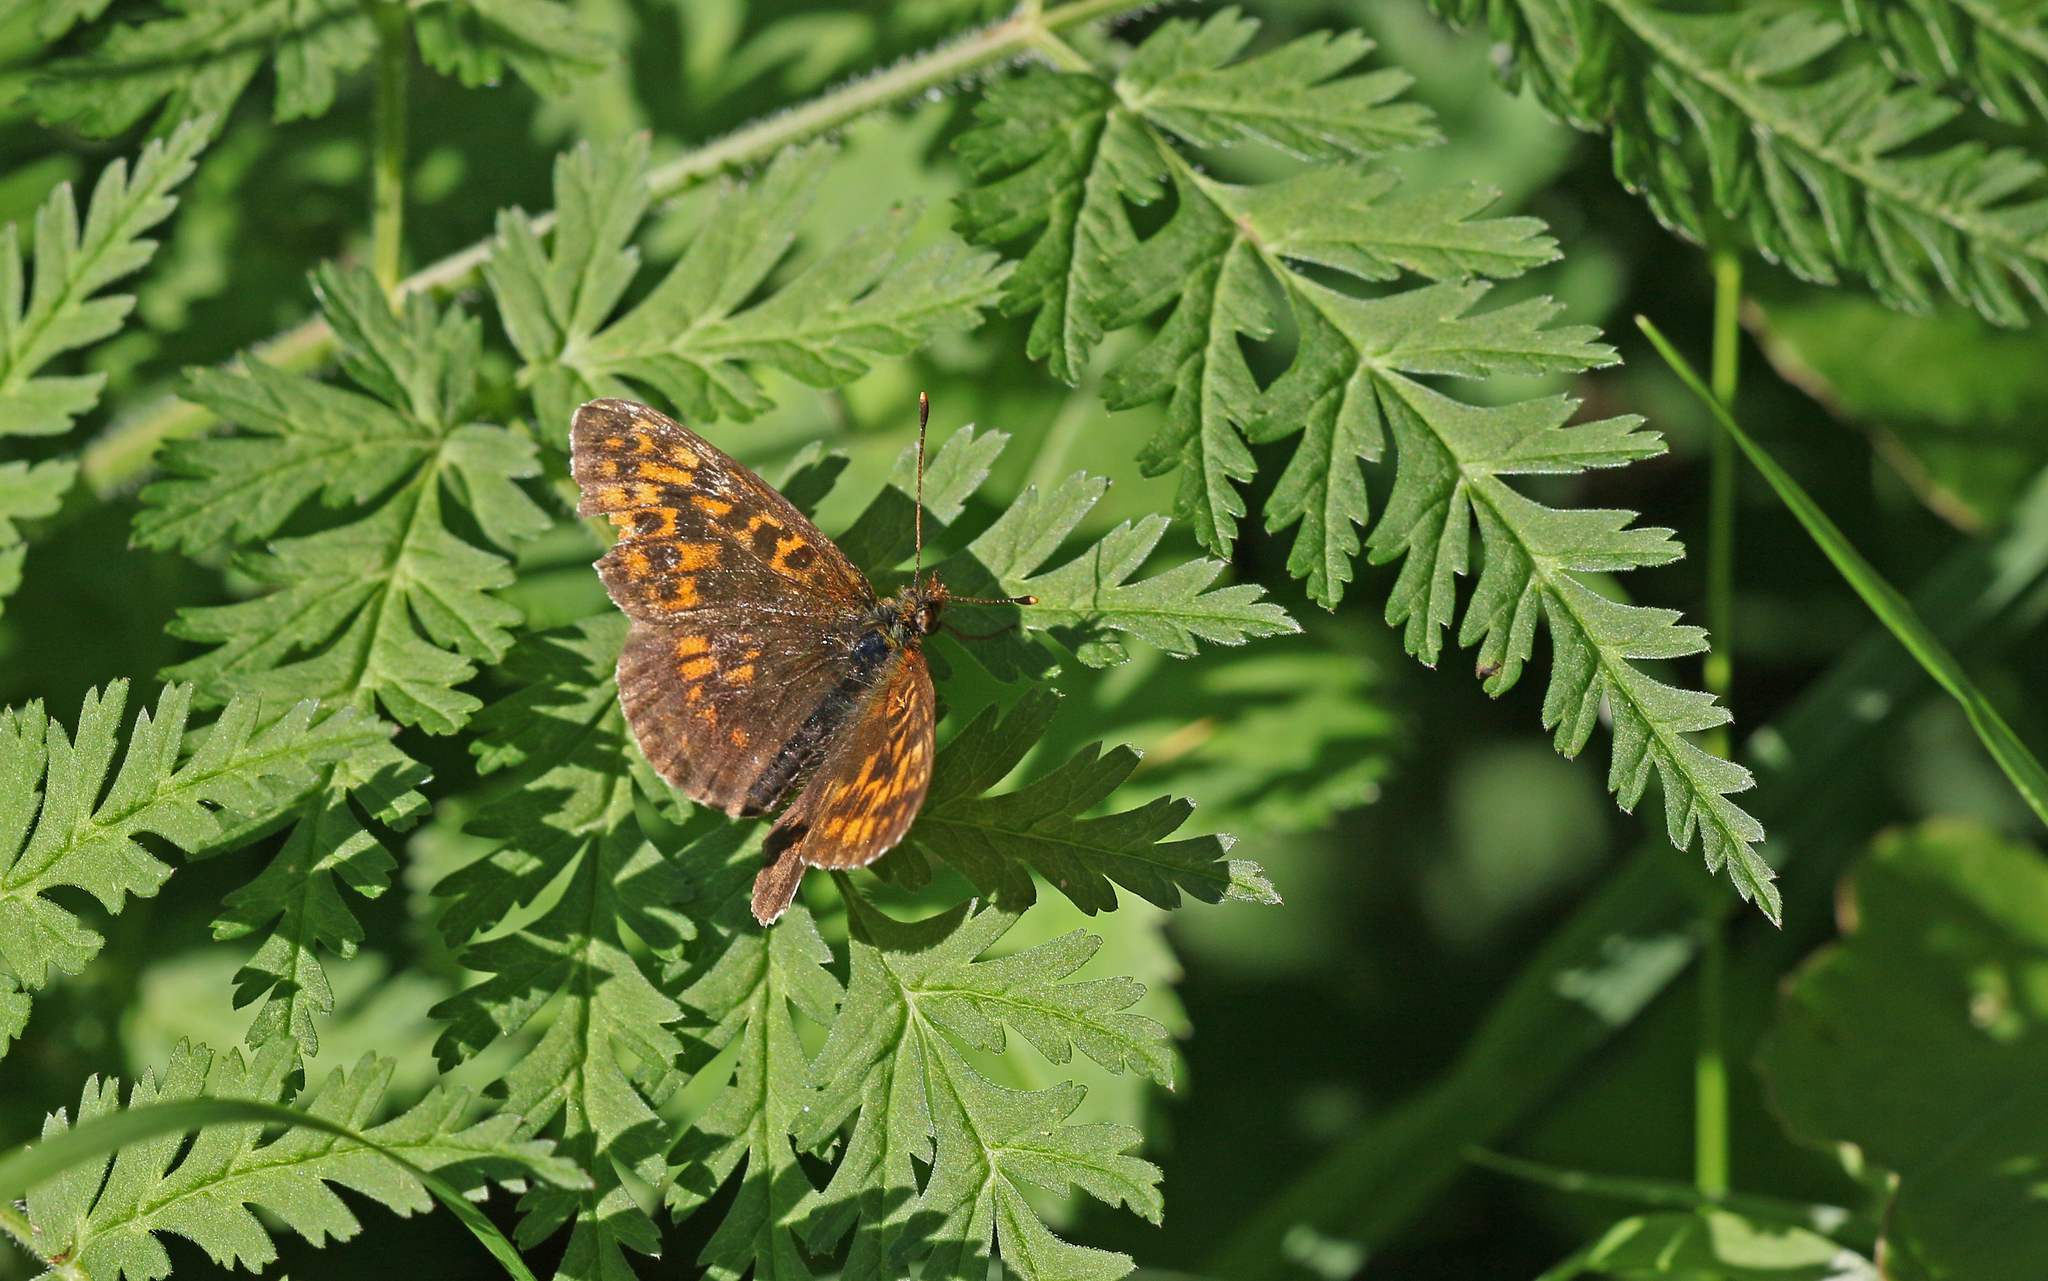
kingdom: Animalia
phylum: Arthropoda
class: Insecta
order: Lepidoptera
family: Nymphalidae
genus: Boloria
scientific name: Boloria thore
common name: Thor's fritillary
